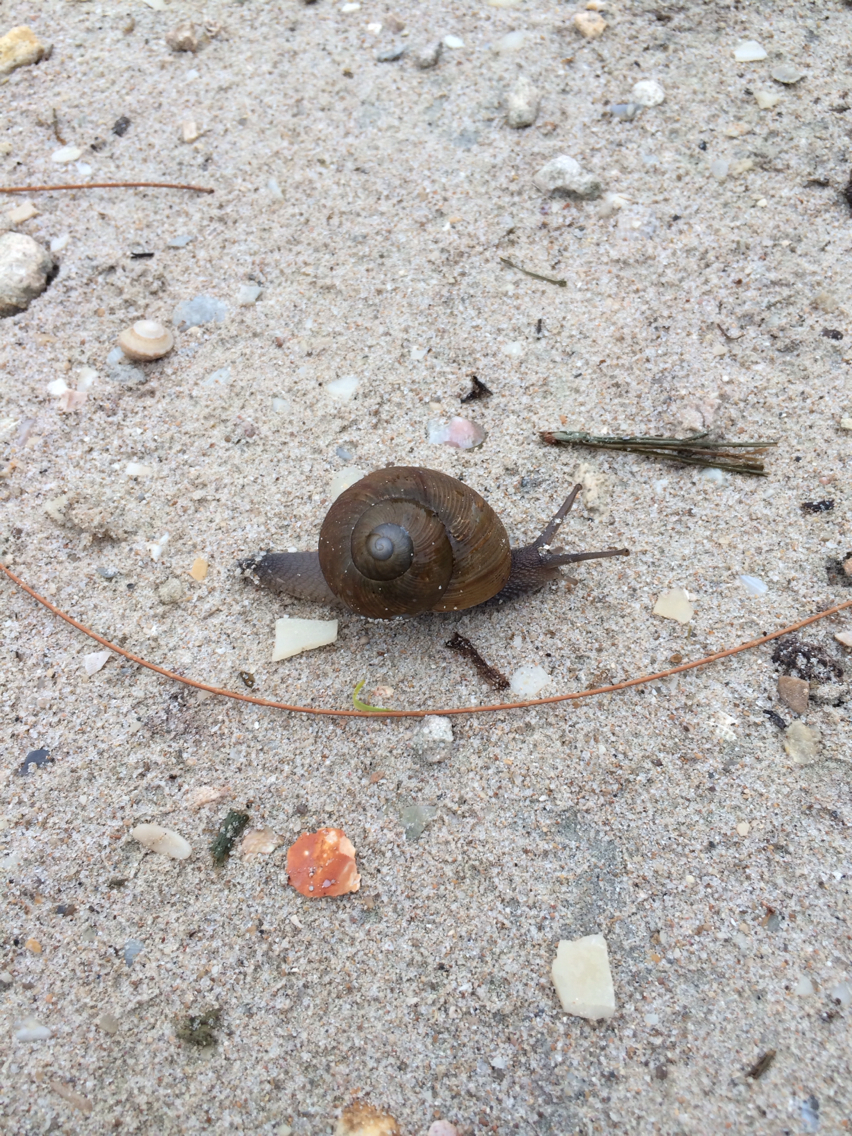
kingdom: Animalia
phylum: Mollusca
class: Gastropoda
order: Stylommatophora
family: Zachrysiidae
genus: Zachrysia
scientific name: Zachrysia provisoria
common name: Garden zachrysia
